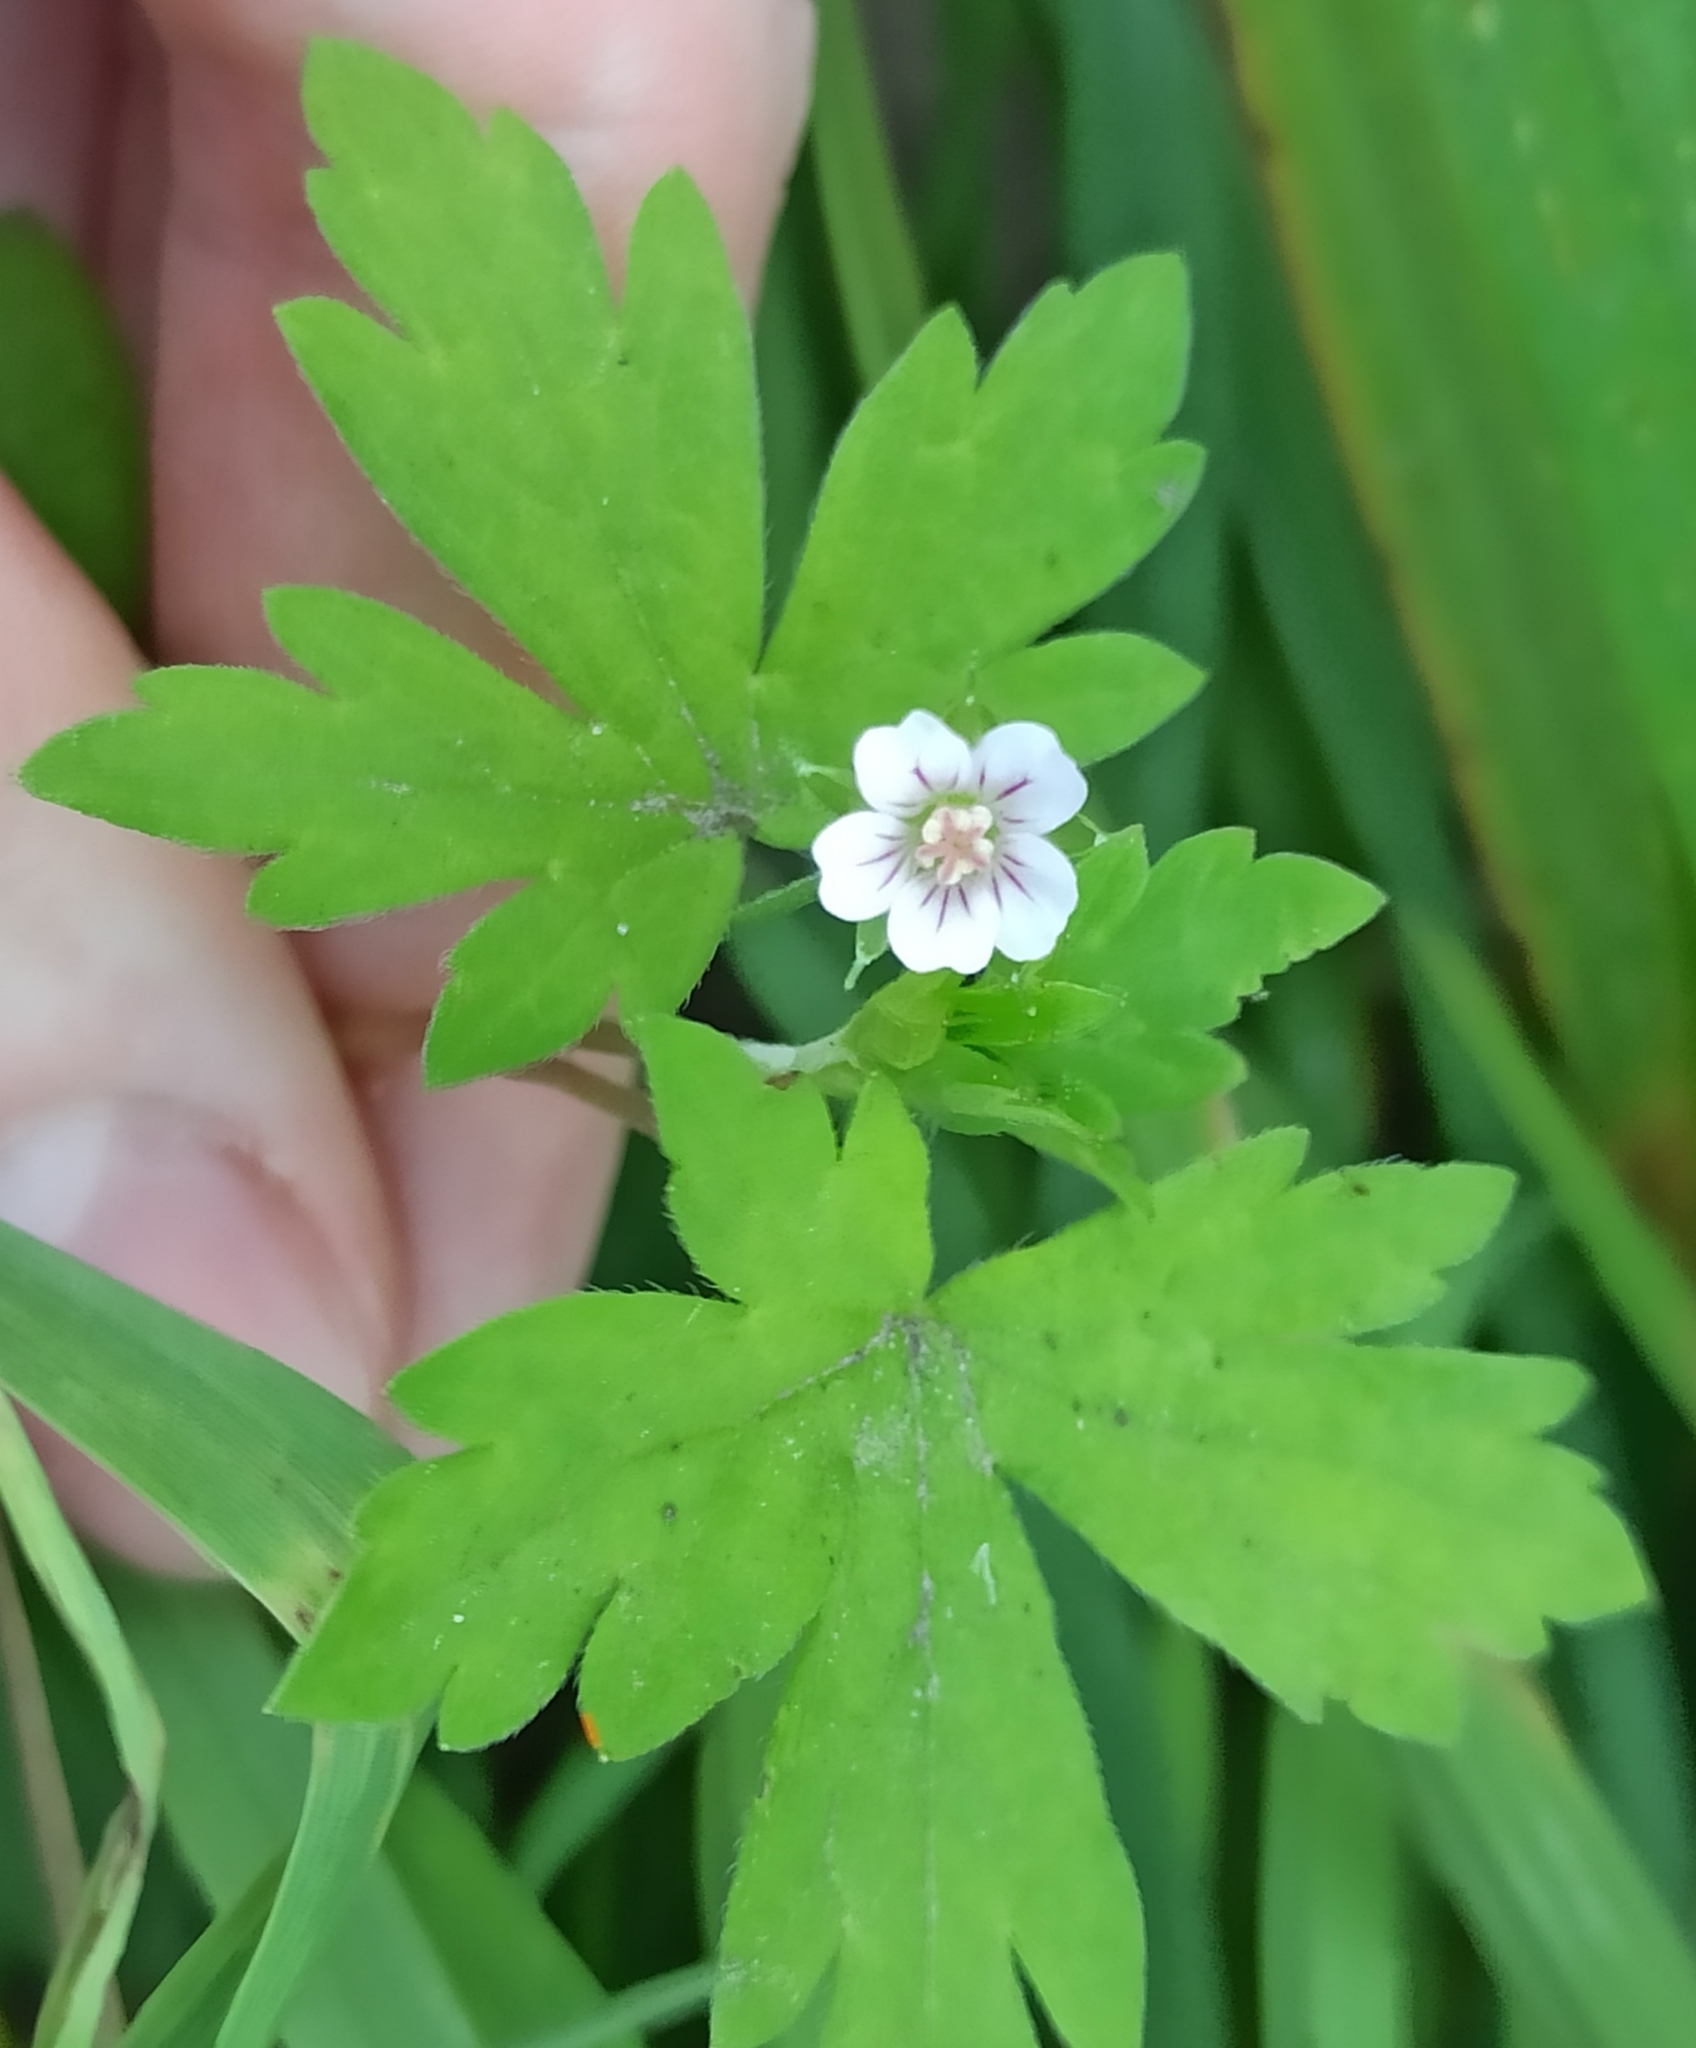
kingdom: Plantae
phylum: Tracheophyta
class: Magnoliopsida
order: Geraniales
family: Geraniaceae
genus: Geranium
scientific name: Geranium sibiricum
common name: Siberian crane's-bill
